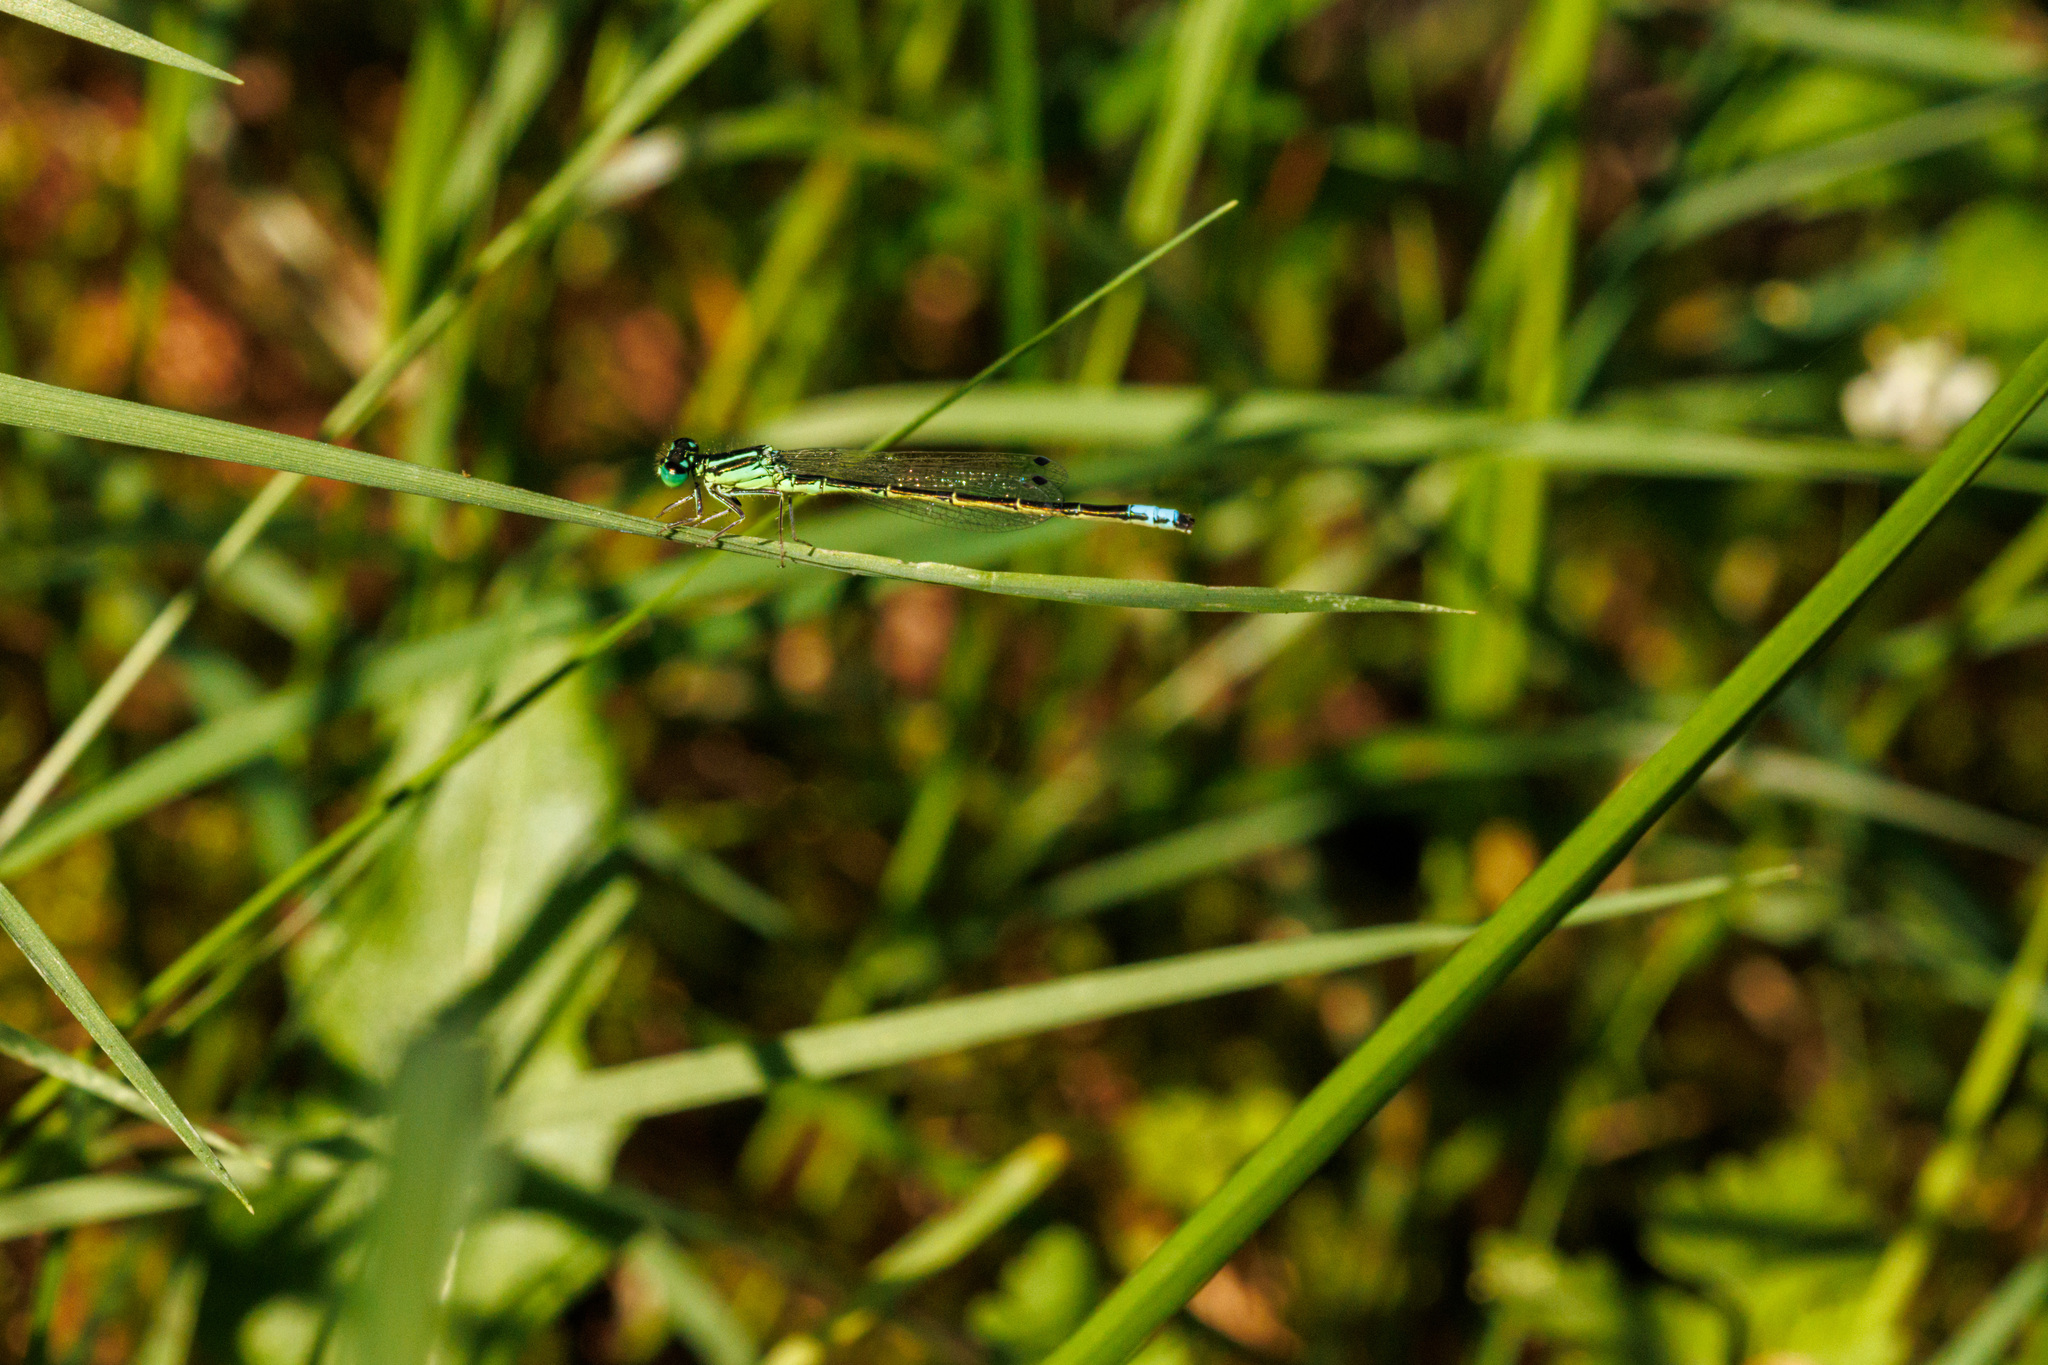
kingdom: Animalia
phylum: Arthropoda
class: Insecta
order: Odonata
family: Coenagrionidae
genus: Ischnura
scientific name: Ischnura perparva
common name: Western forktail
